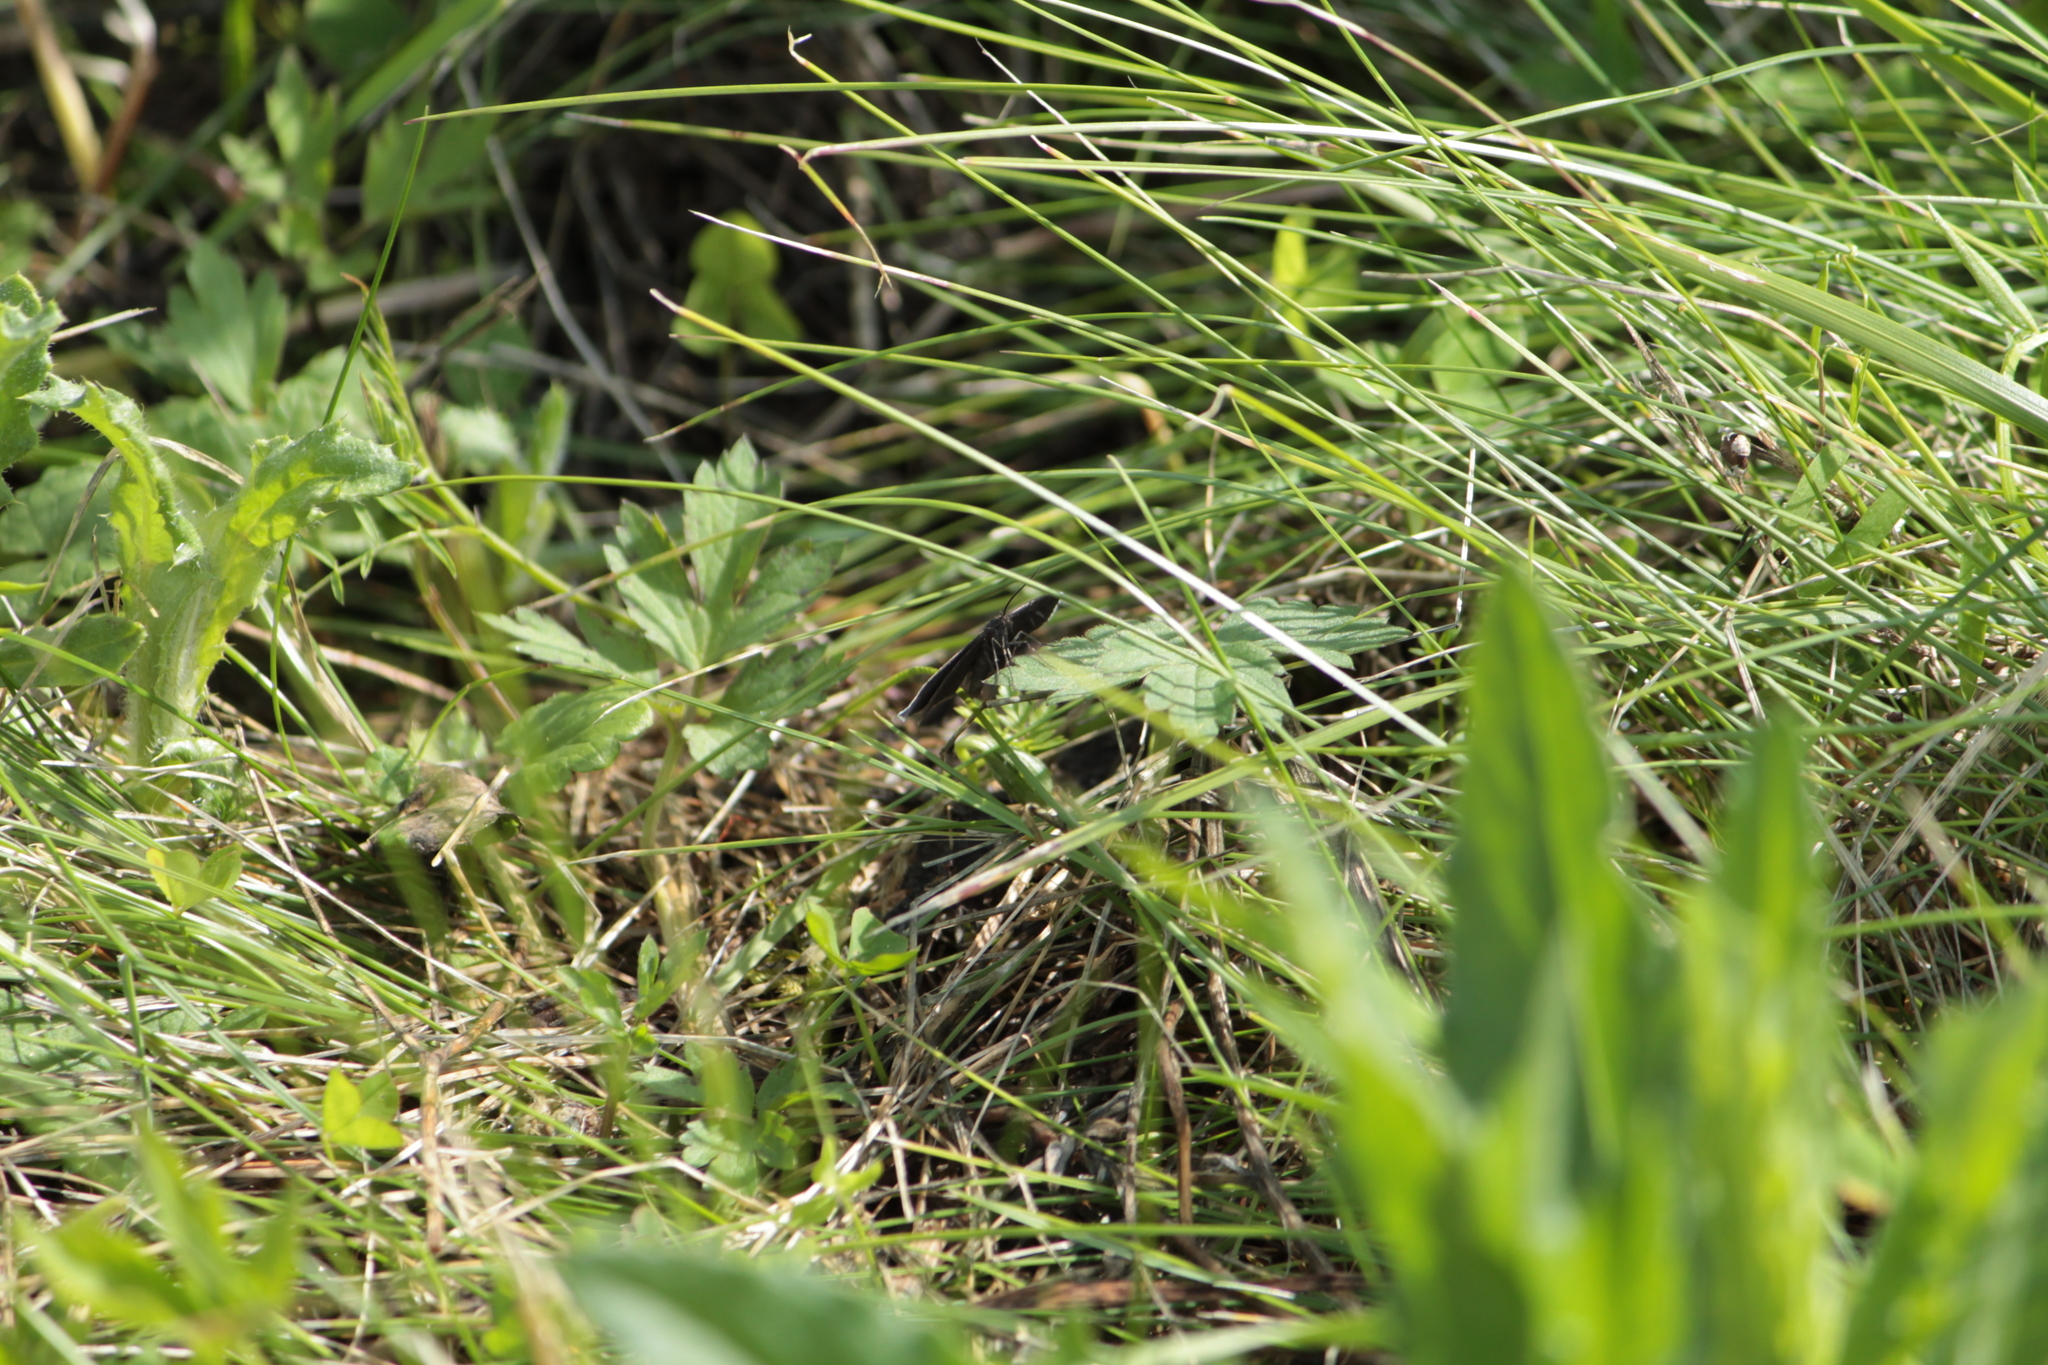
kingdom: Animalia
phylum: Arthropoda
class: Insecta
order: Lepidoptera
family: Geometridae
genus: Odezia
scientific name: Odezia atrata
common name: Chimney sweeper
